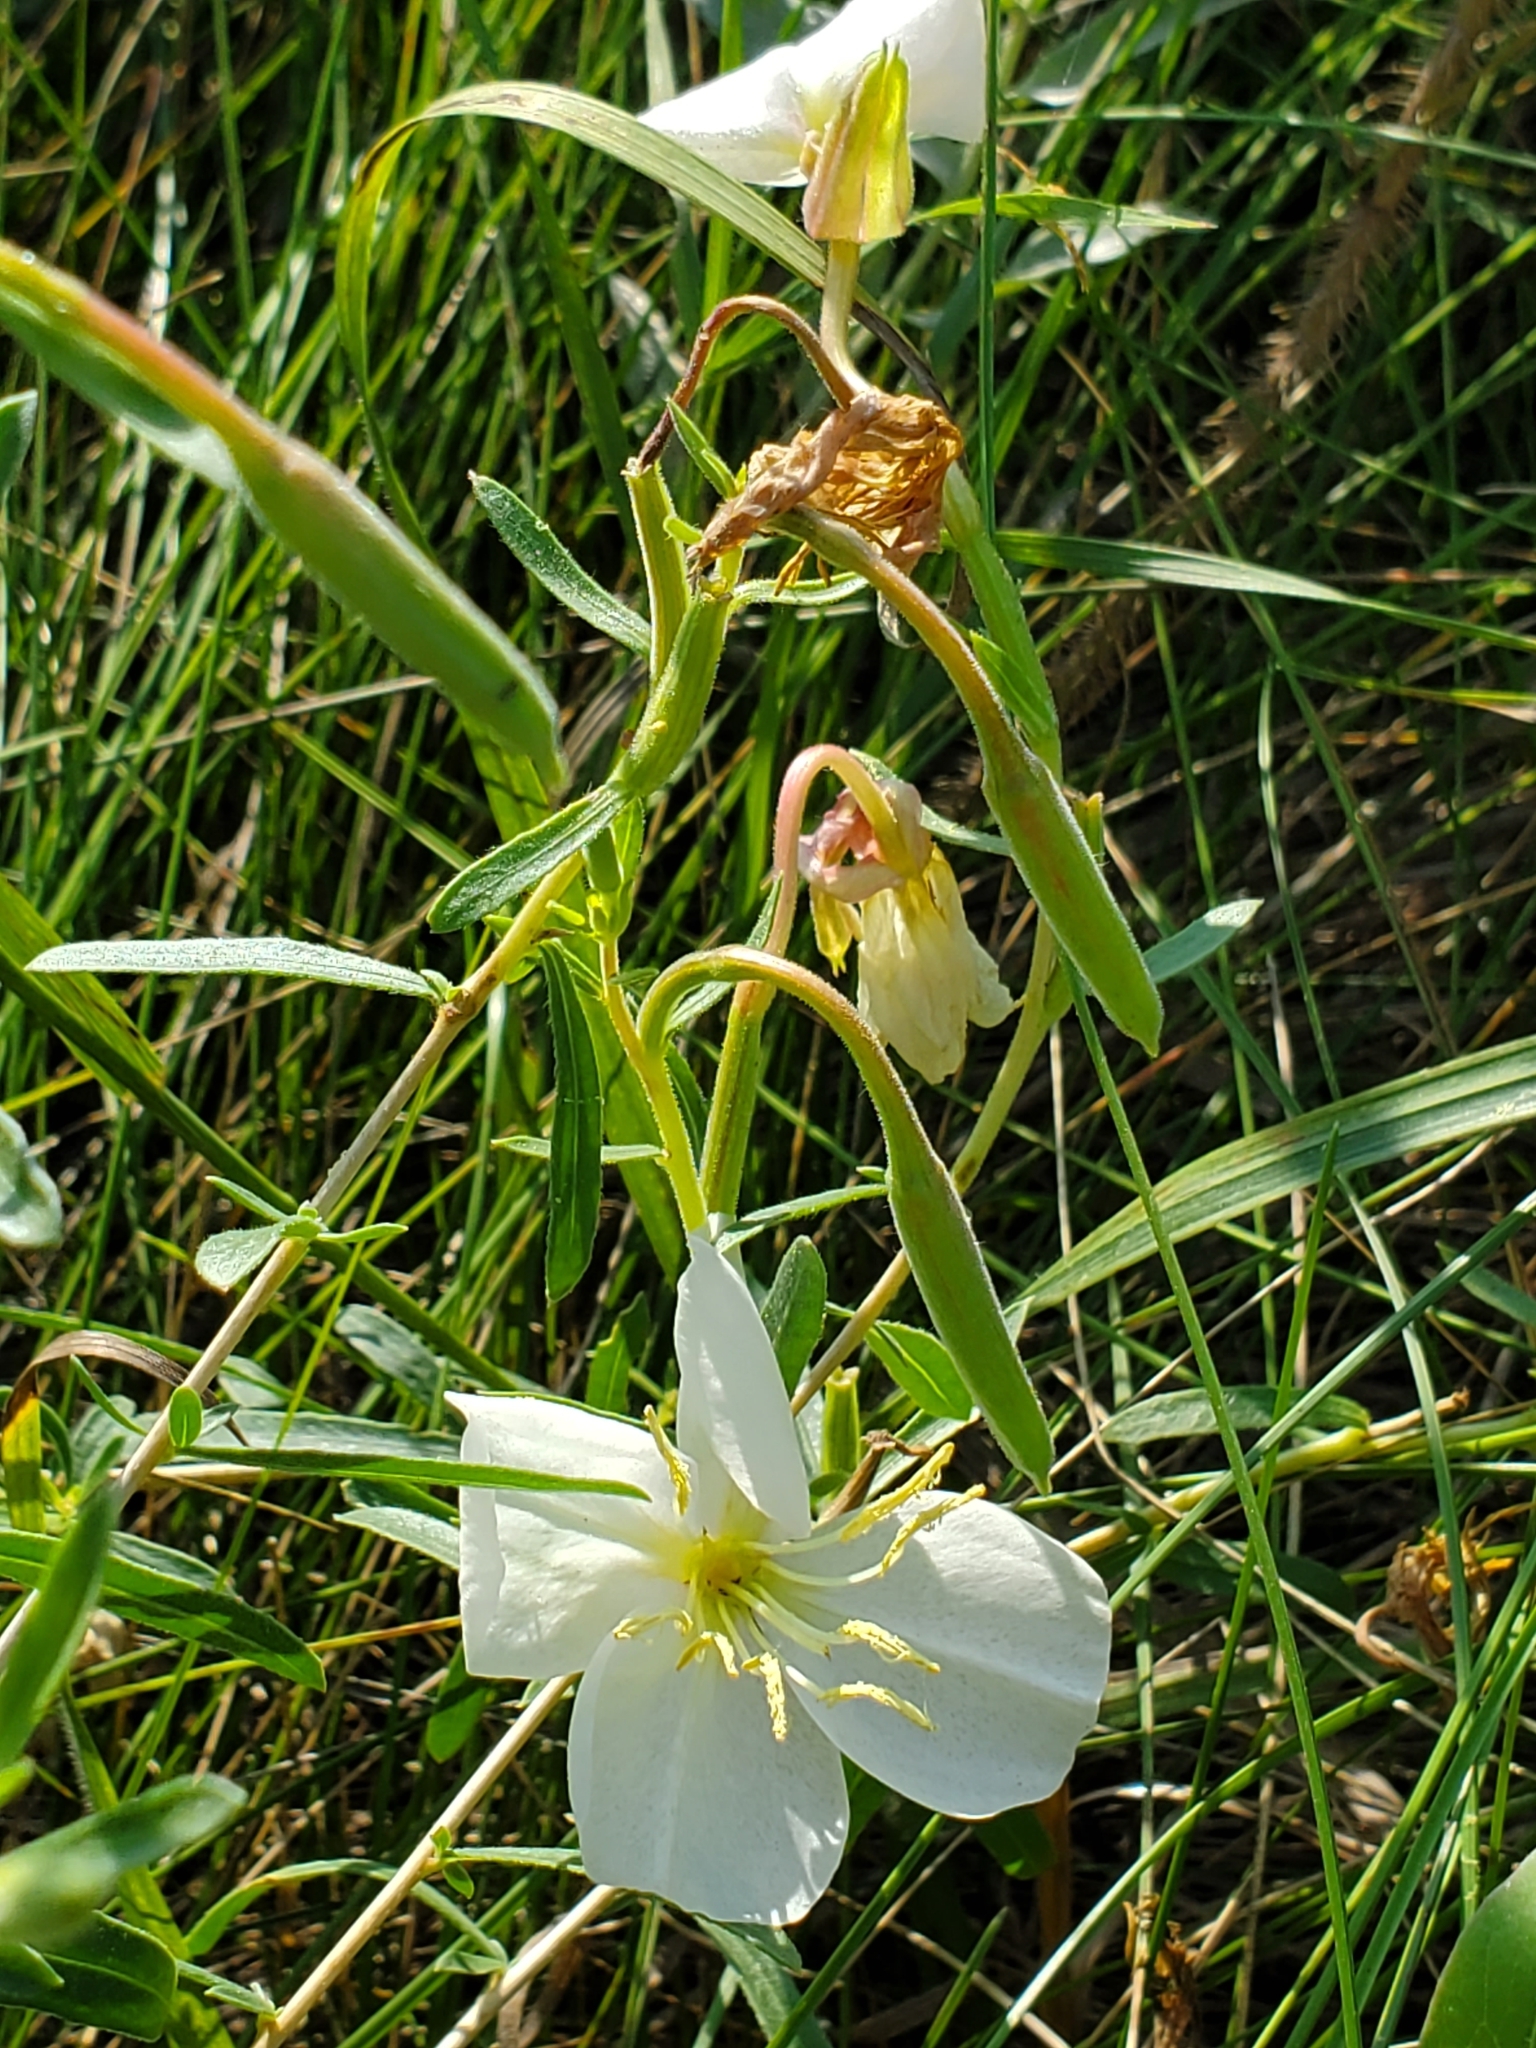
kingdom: Plantae
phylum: Tracheophyta
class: Magnoliopsida
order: Myrtales
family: Onagraceae
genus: Oenothera
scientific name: Oenothera nuttallii
